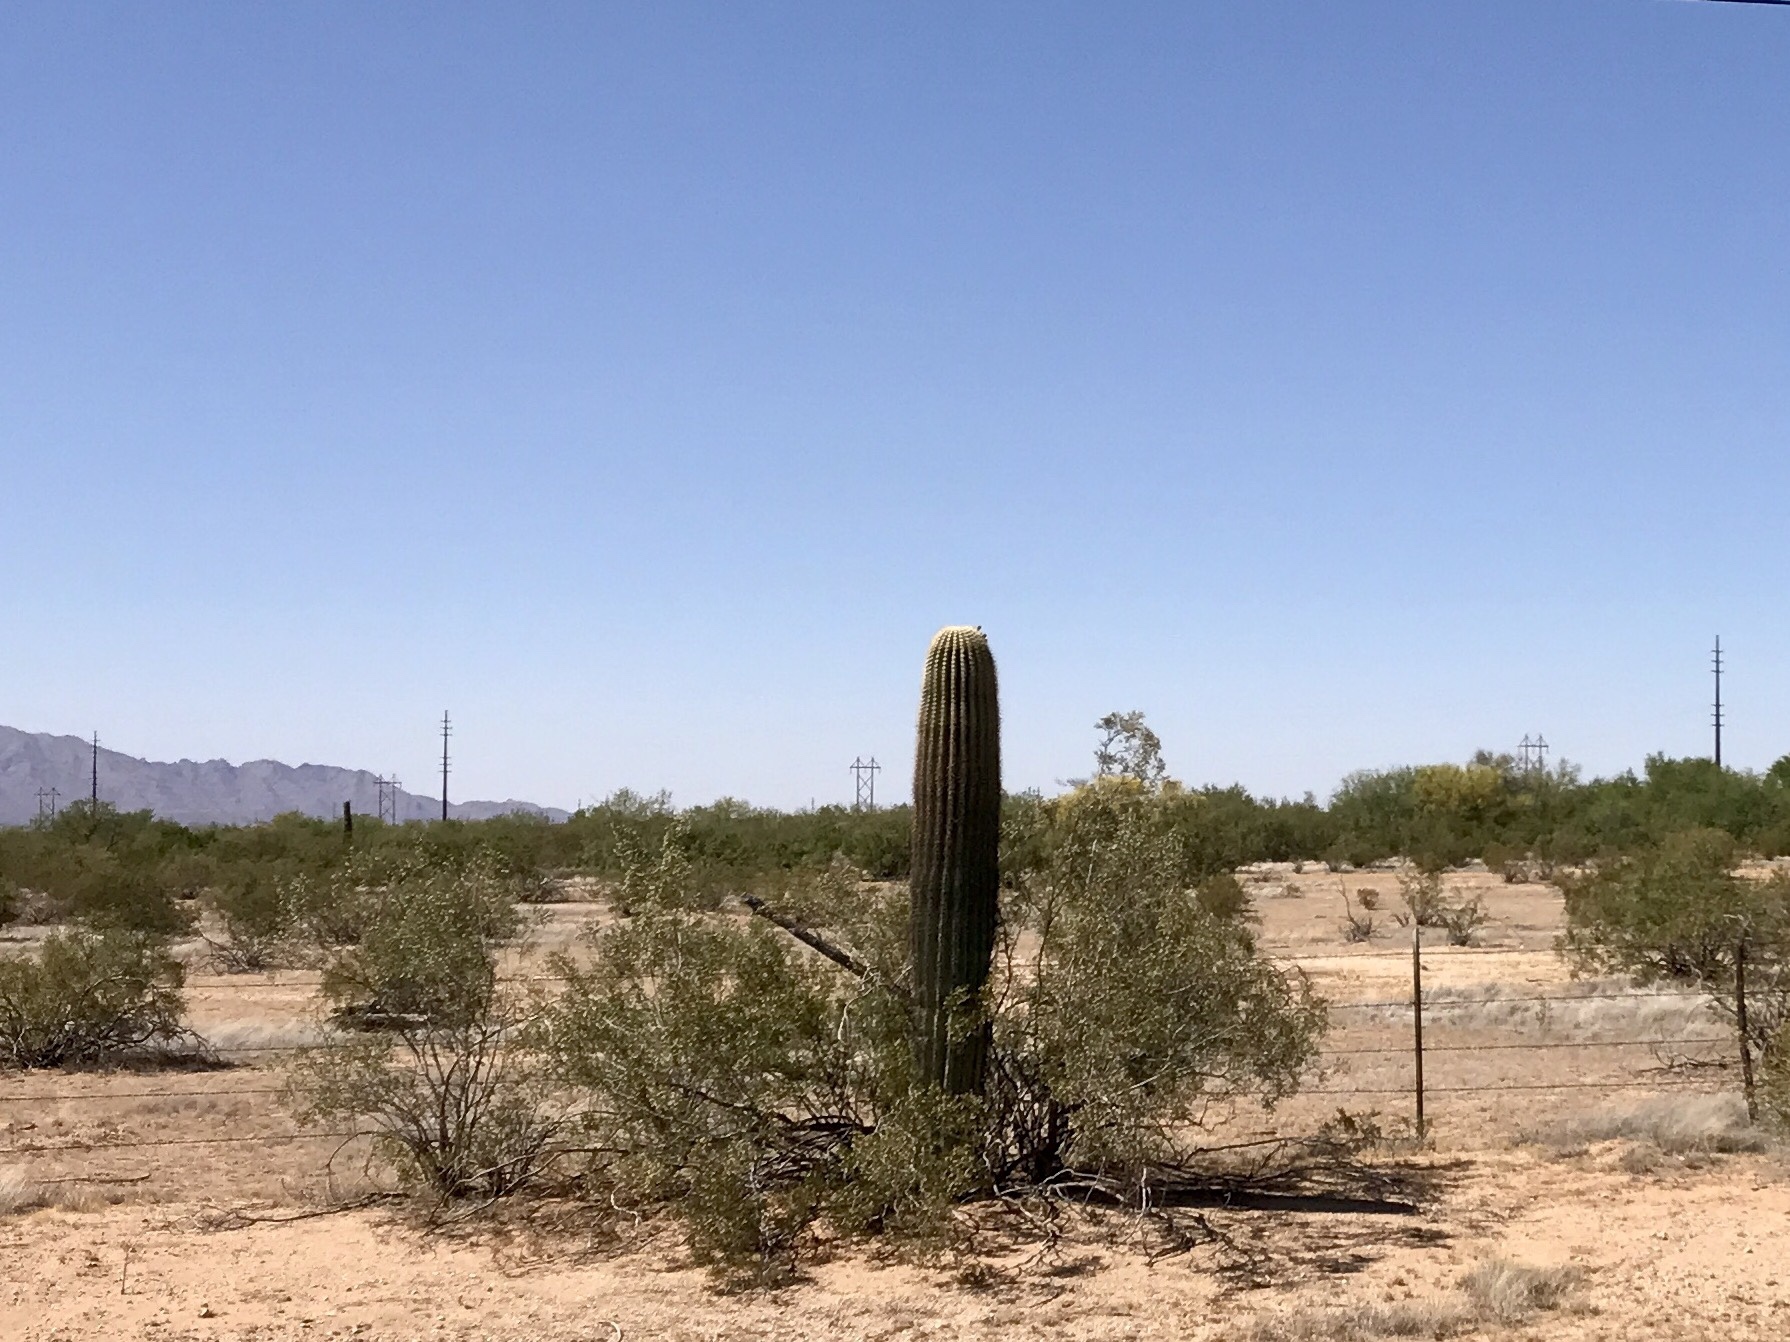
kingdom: Plantae
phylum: Tracheophyta
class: Magnoliopsida
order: Caryophyllales
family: Cactaceae
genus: Carnegiea
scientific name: Carnegiea gigantea
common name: Saguaro
